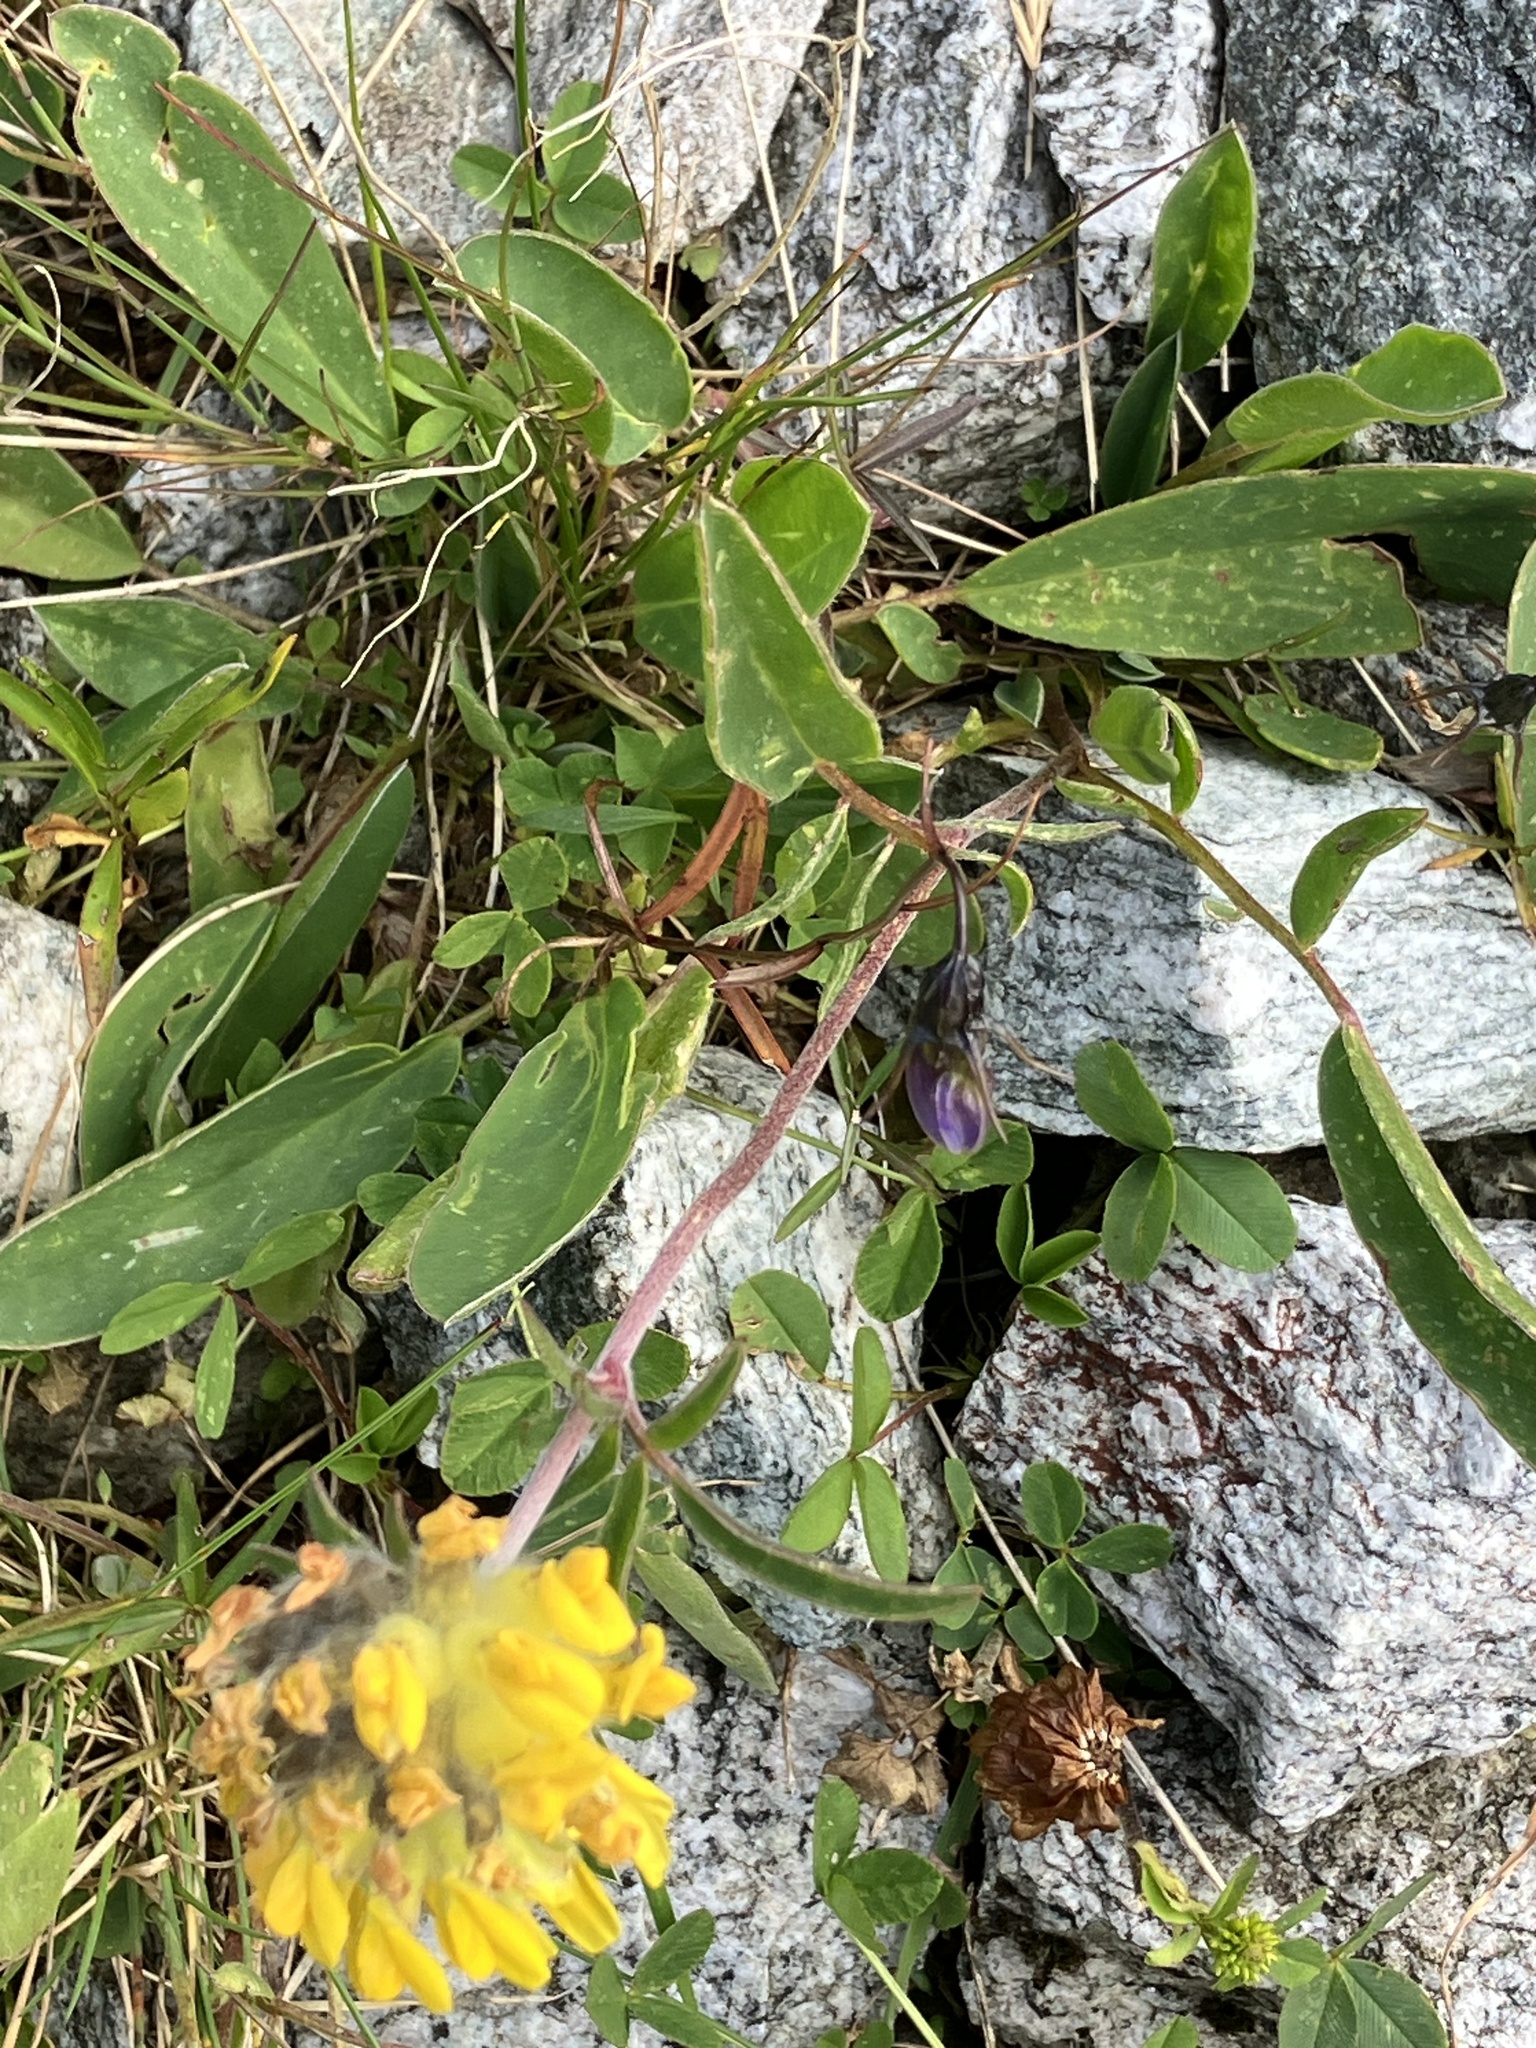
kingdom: Plantae
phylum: Tracheophyta
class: Magnoliopsida
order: Fabales
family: Fabaceae
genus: Anthyllis
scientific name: Anthyllis vulneraria
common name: Kidney vetch
